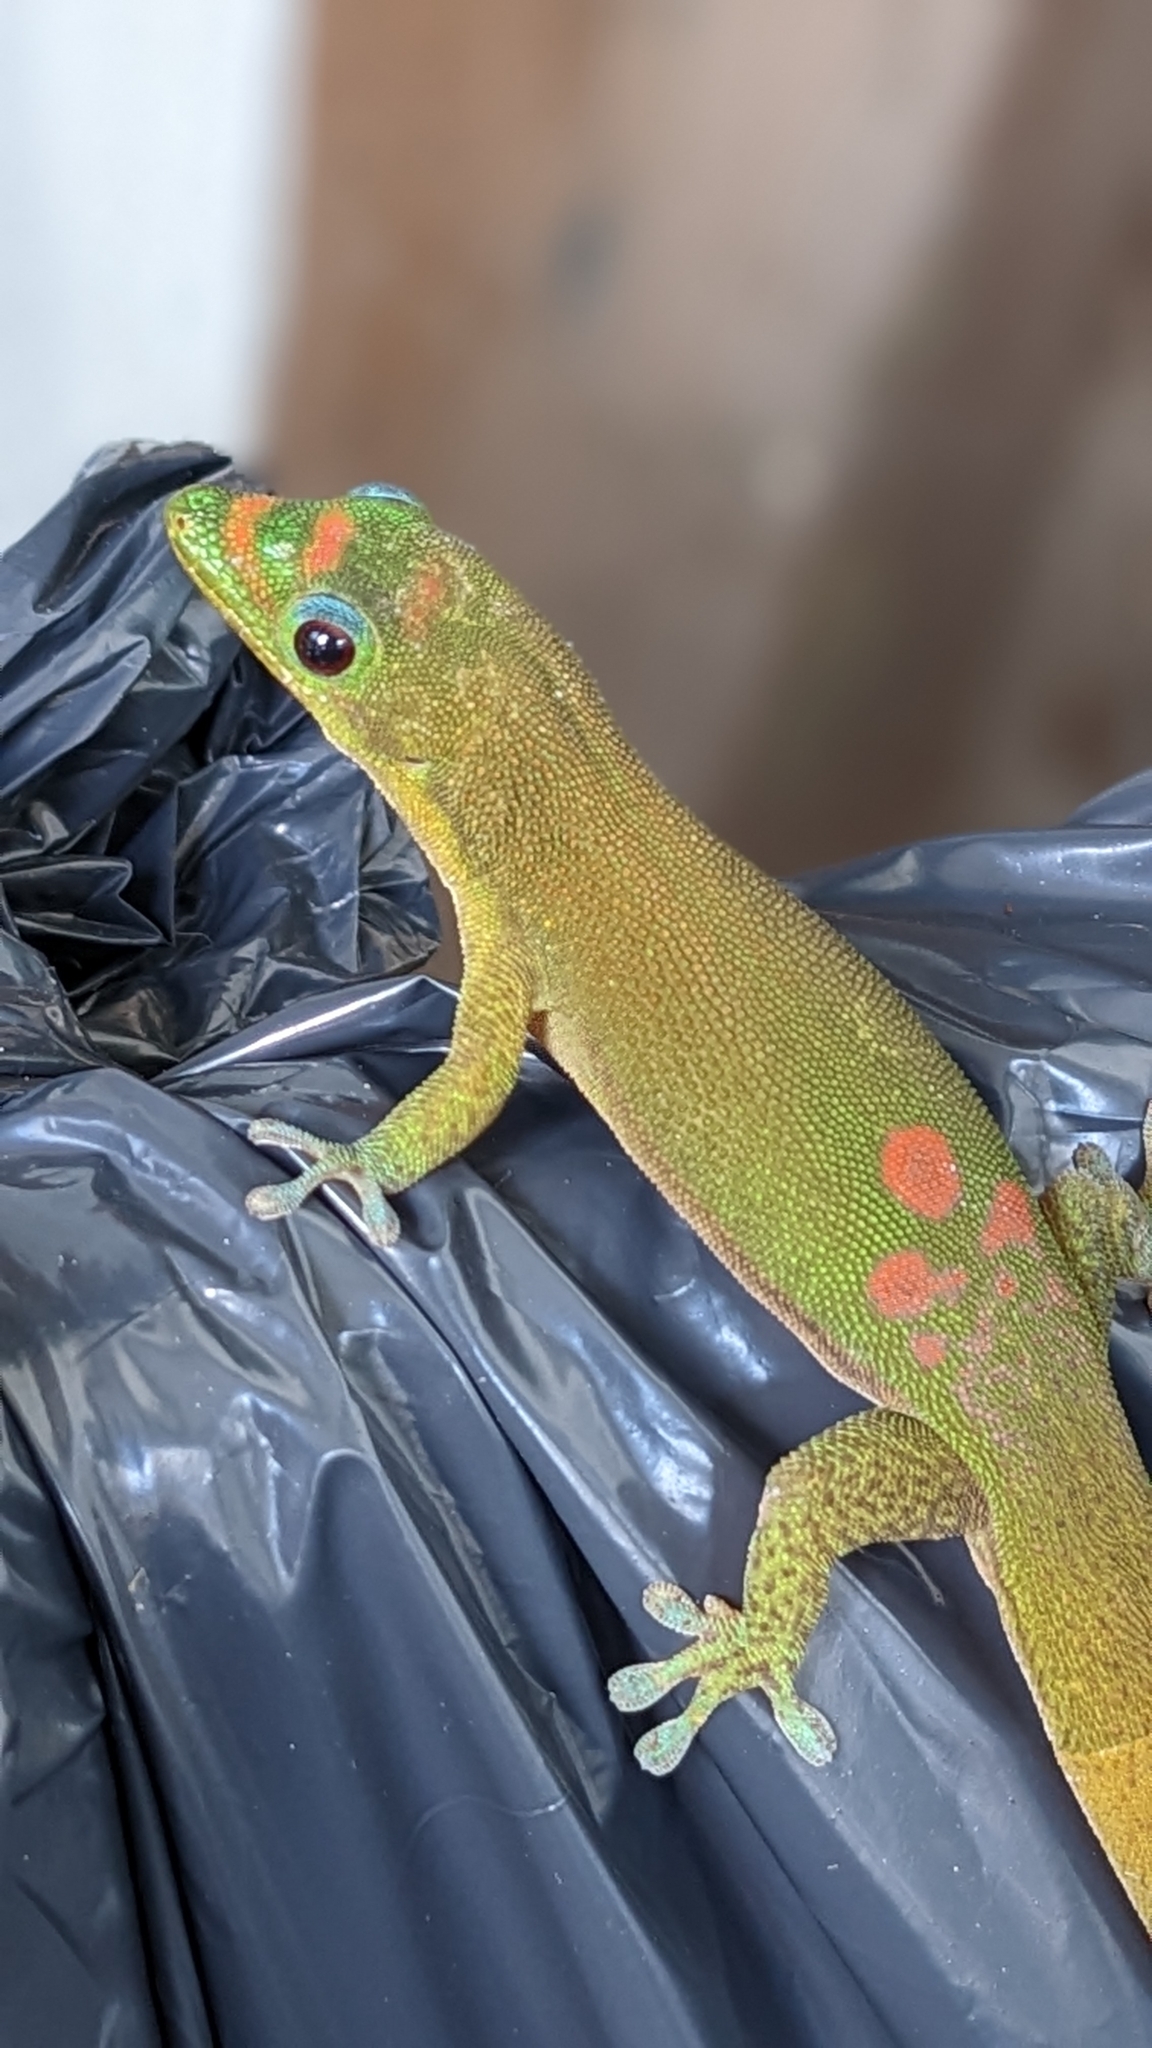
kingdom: Animalia
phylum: Chordata
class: Squamata
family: Gekkonidae
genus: Phelsuma
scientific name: Phelsuma laticauda
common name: Gold dust day gecko
